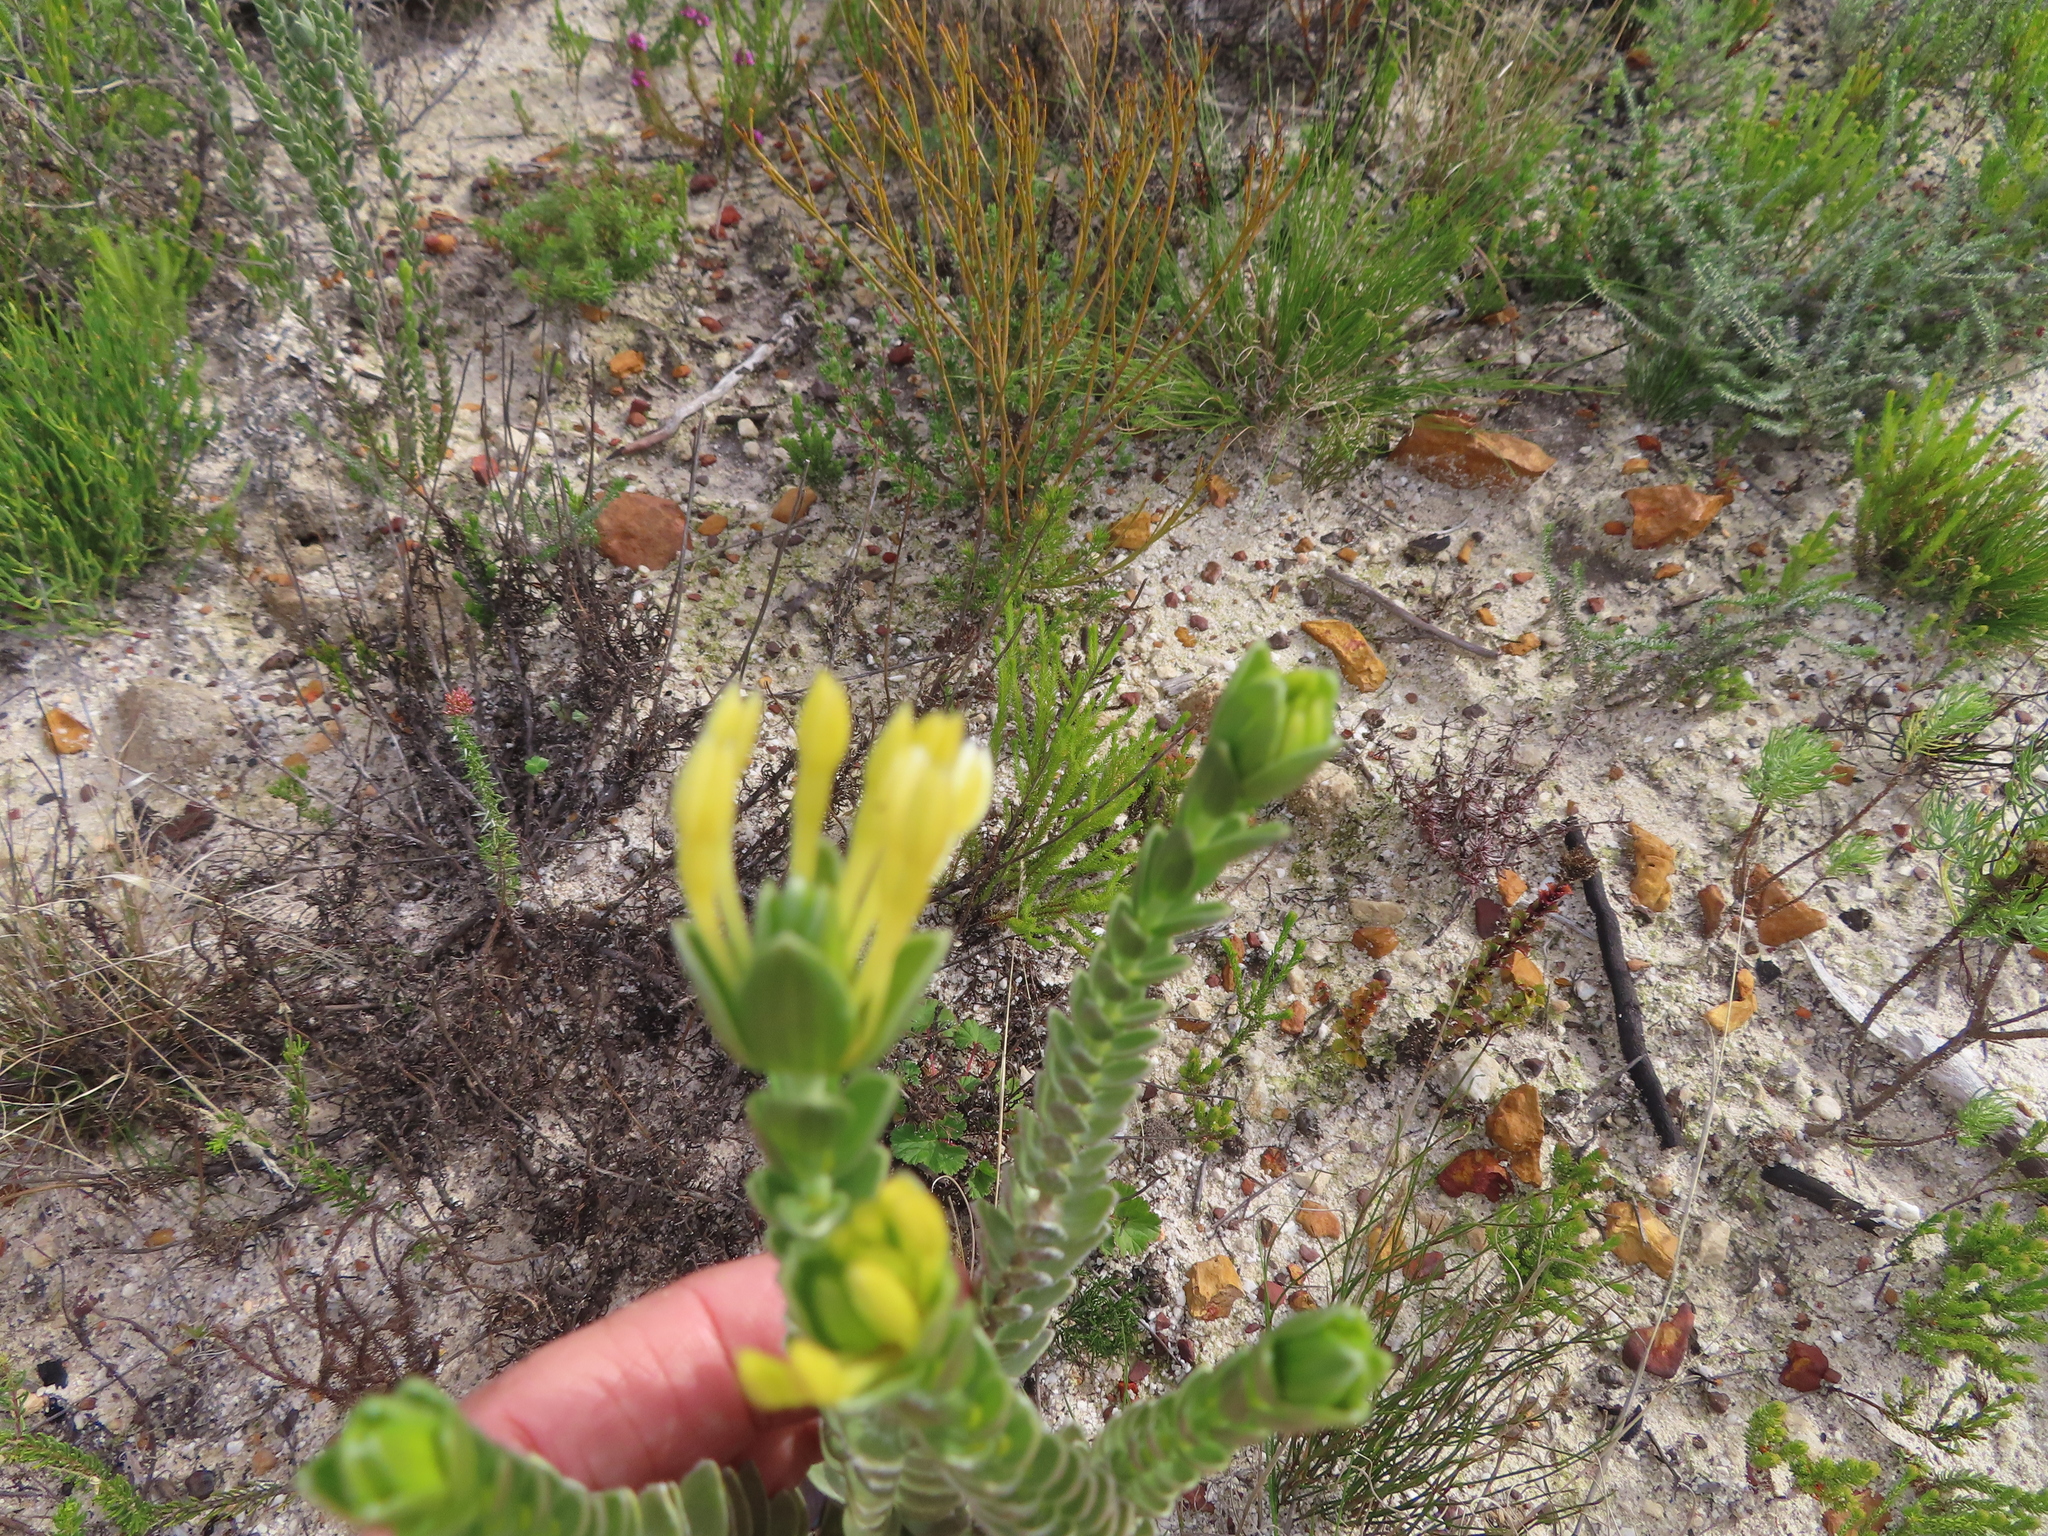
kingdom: Plantae
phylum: Tracheophyta
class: Magnoliopsida
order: Malvales
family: Thymelaeaceae
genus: Gnidia
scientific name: Gnidia anomala
